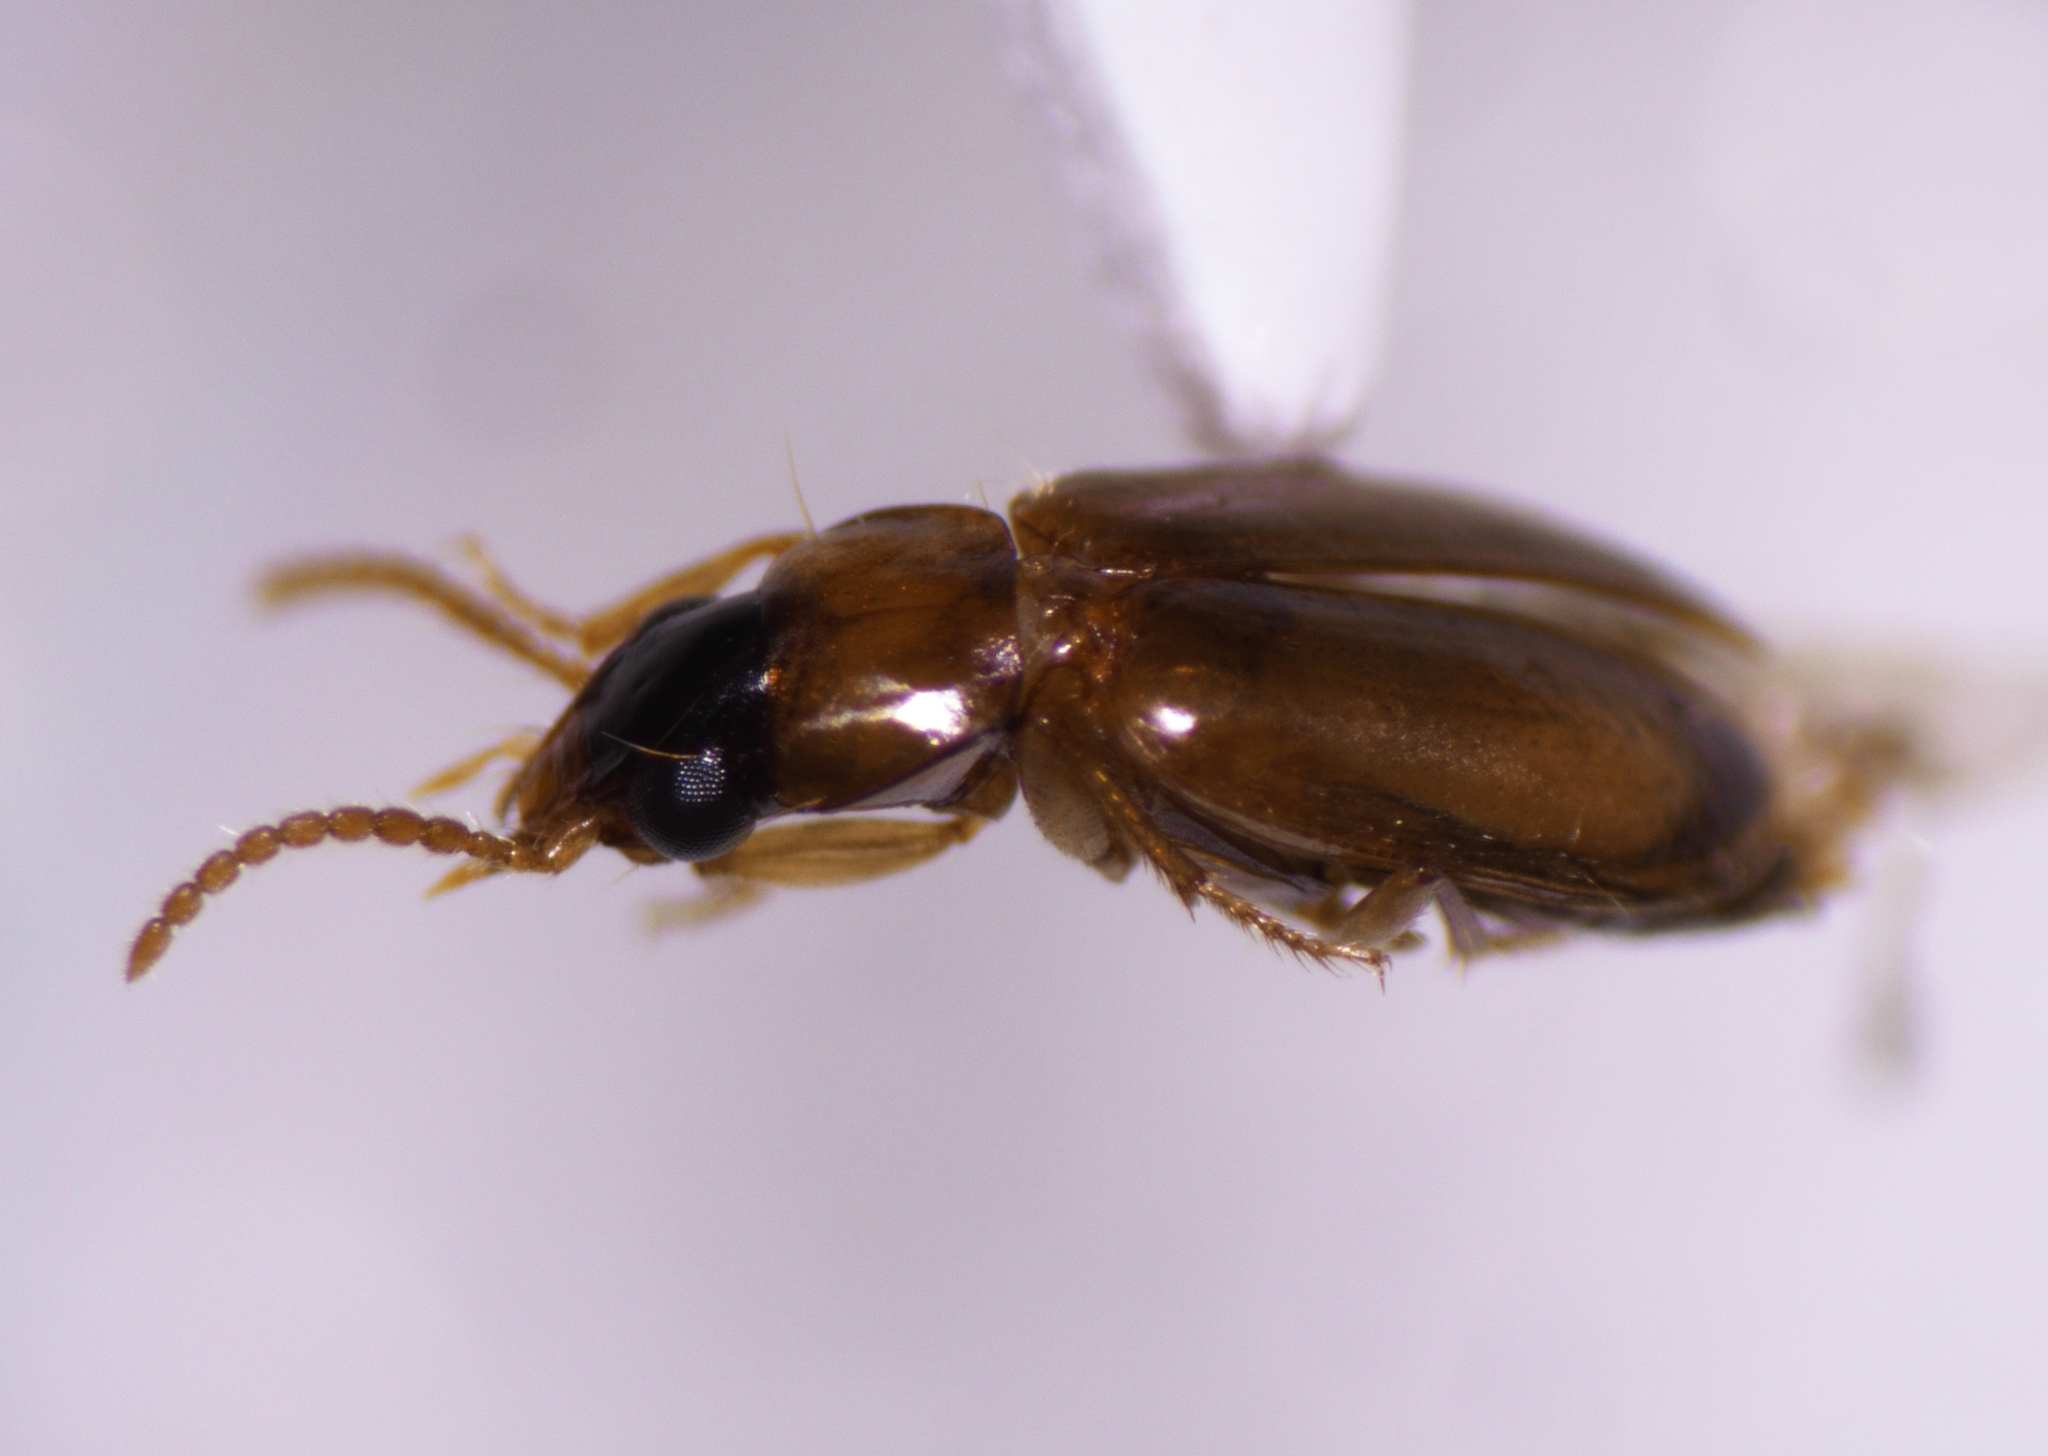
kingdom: Animalia
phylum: Arthropoda
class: Insecta
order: Coleoptera
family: Carabidae
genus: Perigona
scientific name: Perigona nigriceps
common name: Tawny harp ground beetle
